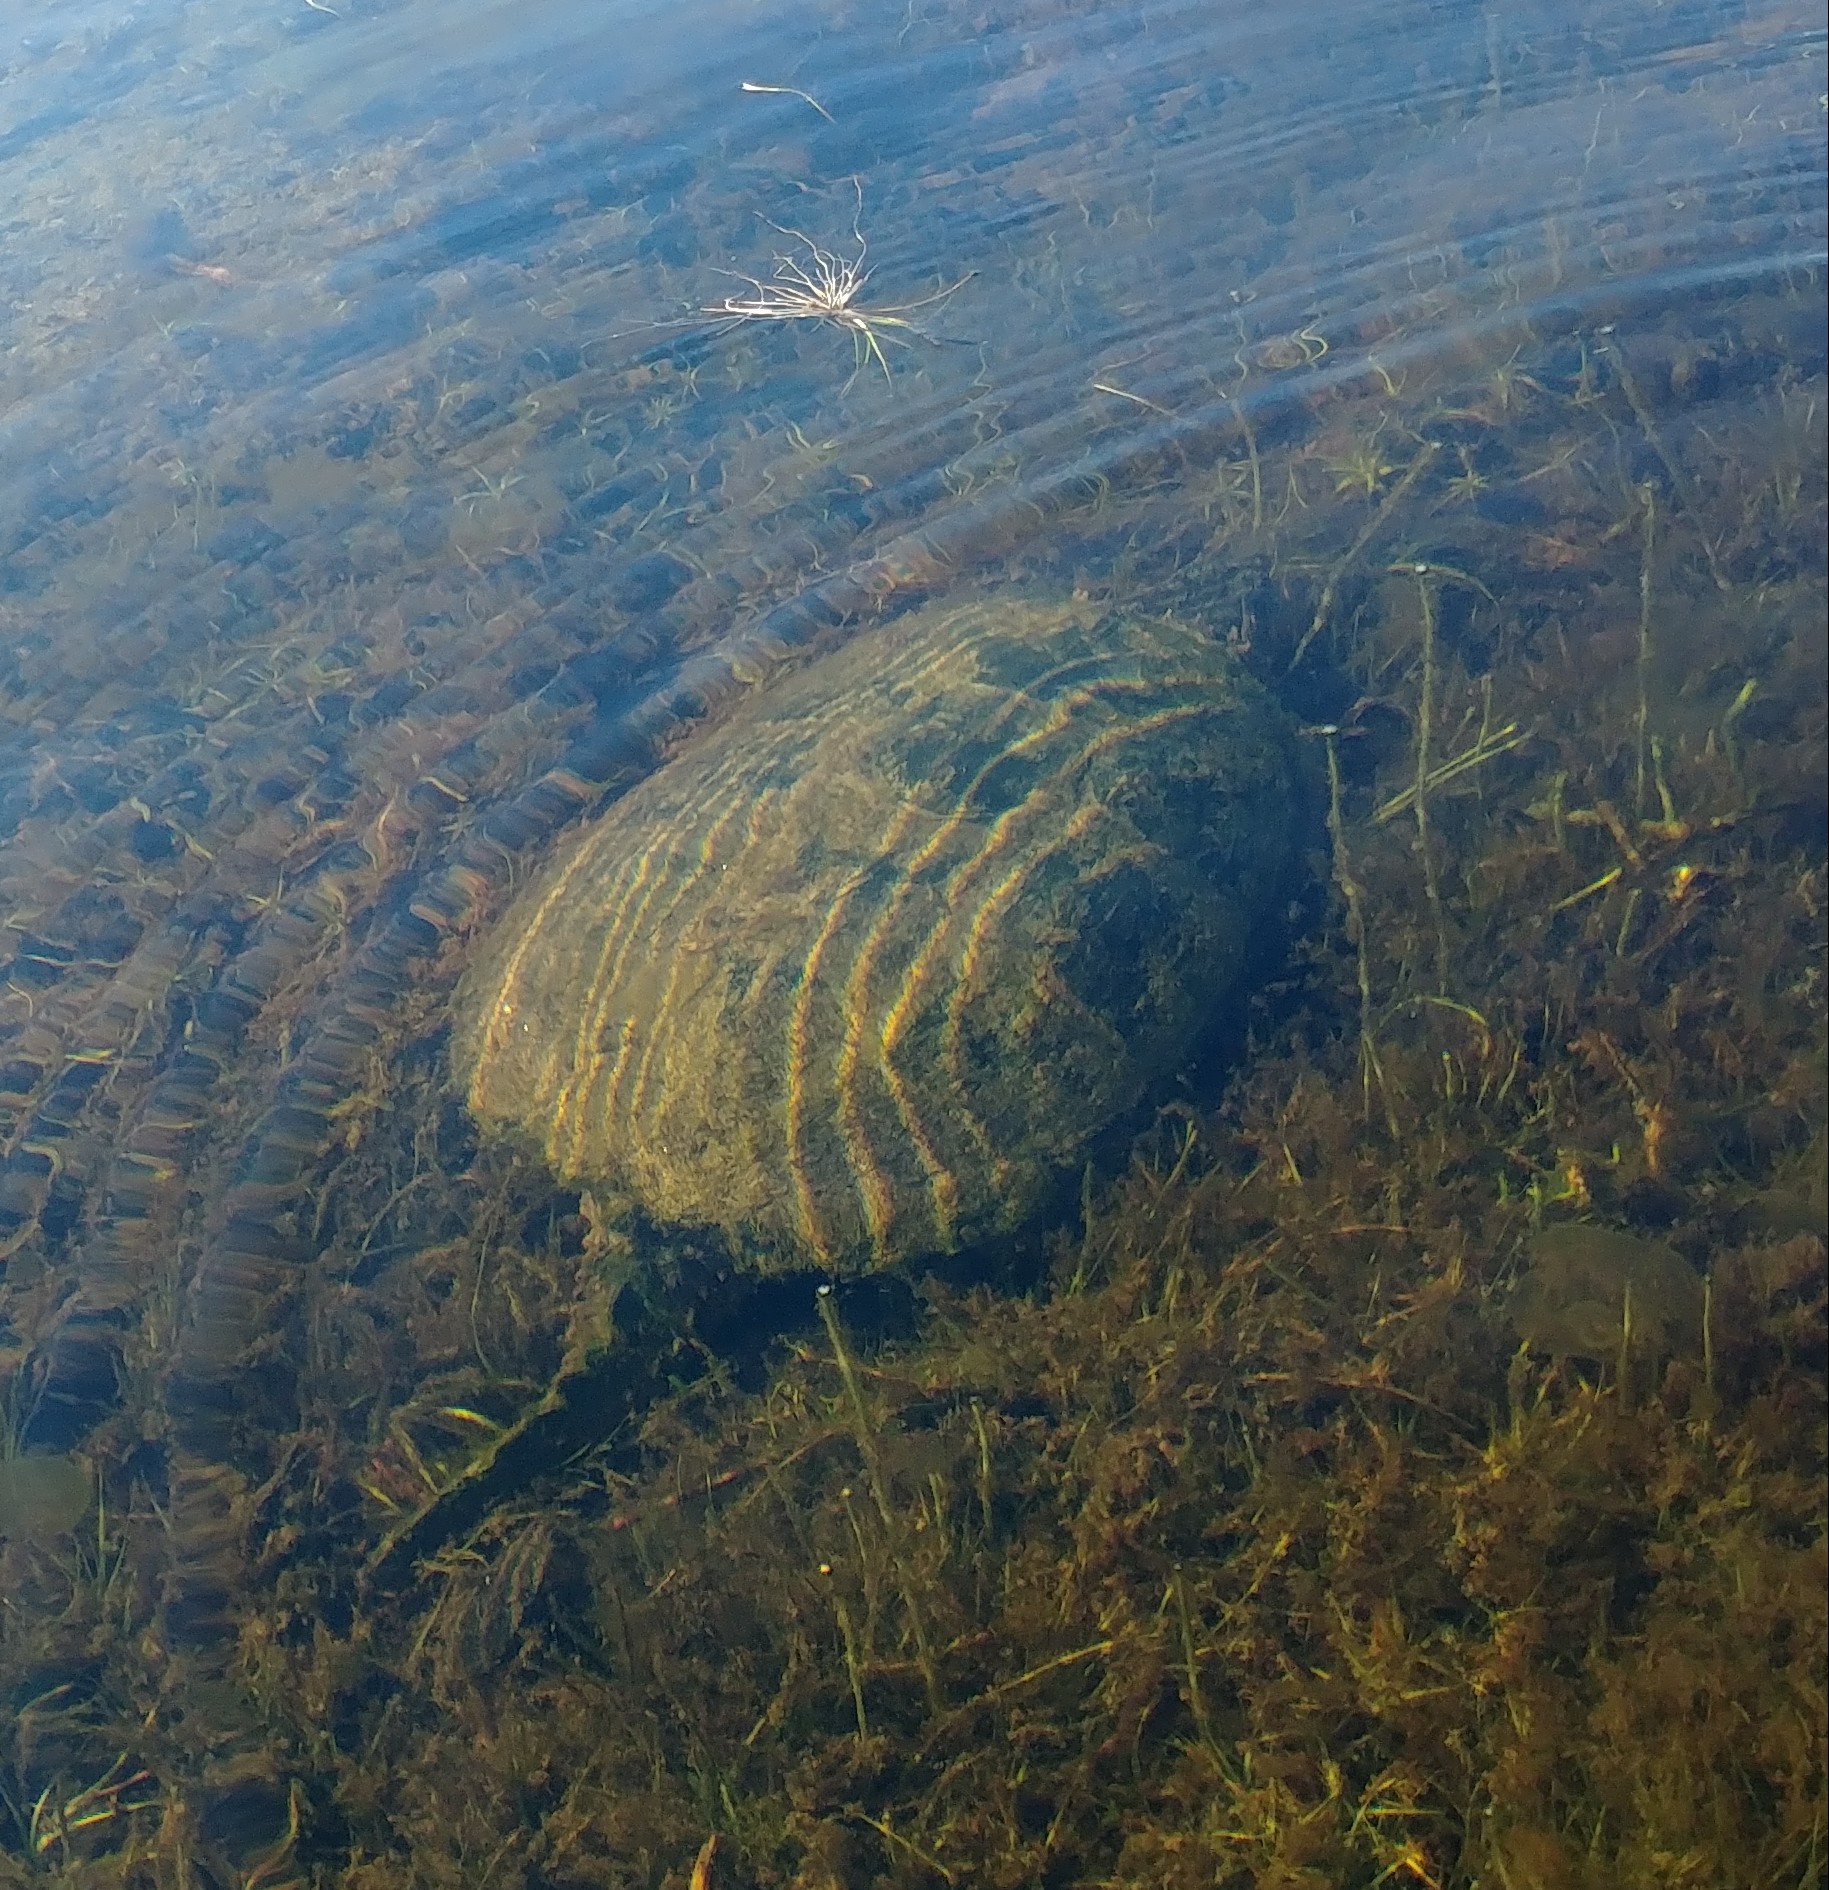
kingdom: Animalia
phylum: Chordata
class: Testudines
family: Chelydridae
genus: Chelydra
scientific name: Chelydra serpentina
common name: Common snapping turtle
